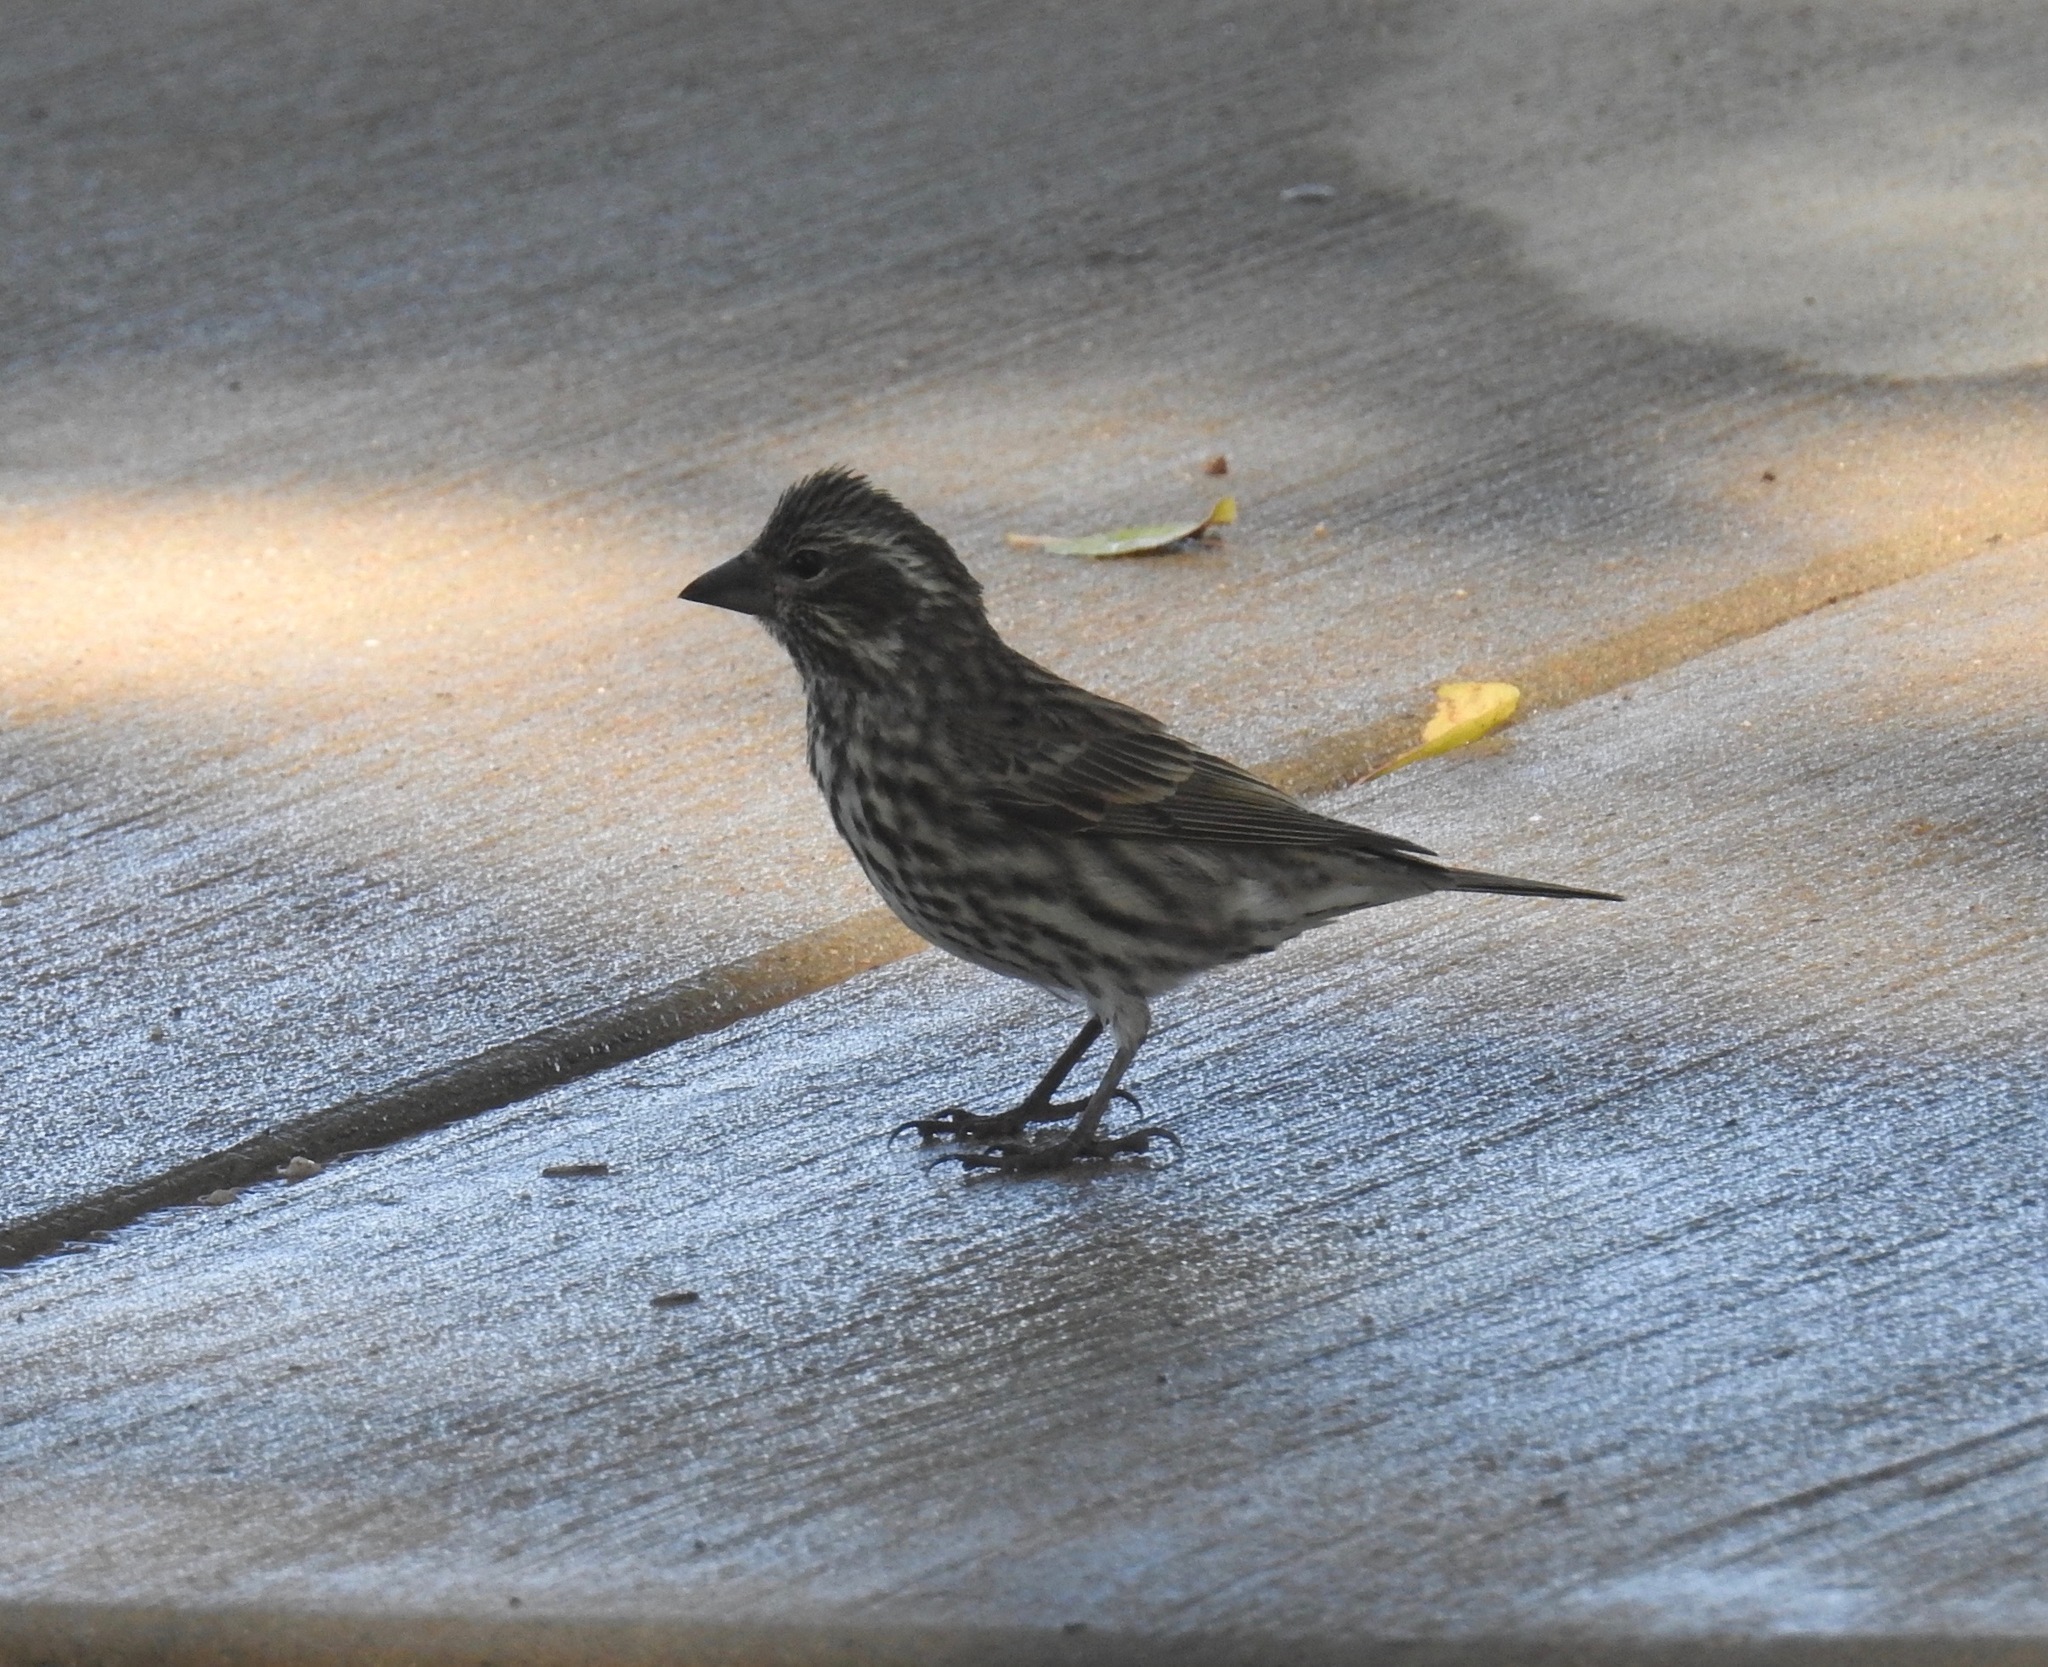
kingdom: Animalia
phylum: Chordata
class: Aves
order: Passeriformes
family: Fringillidae
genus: Haemorhous
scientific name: Haemorhous cassinii
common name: Cassin's finch
